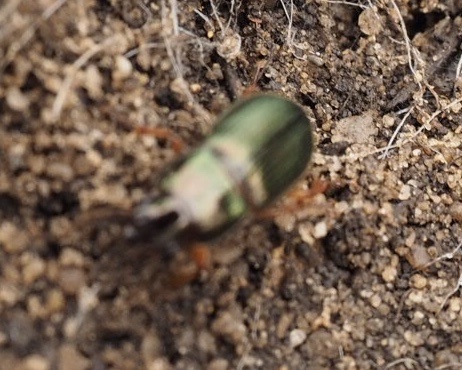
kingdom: Animalia
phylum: Arthropoda
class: Insecta
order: Coleoptera
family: Carabidae
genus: Harpalus
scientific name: Harpalus affinis
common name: Polychrome harp ground beetle
